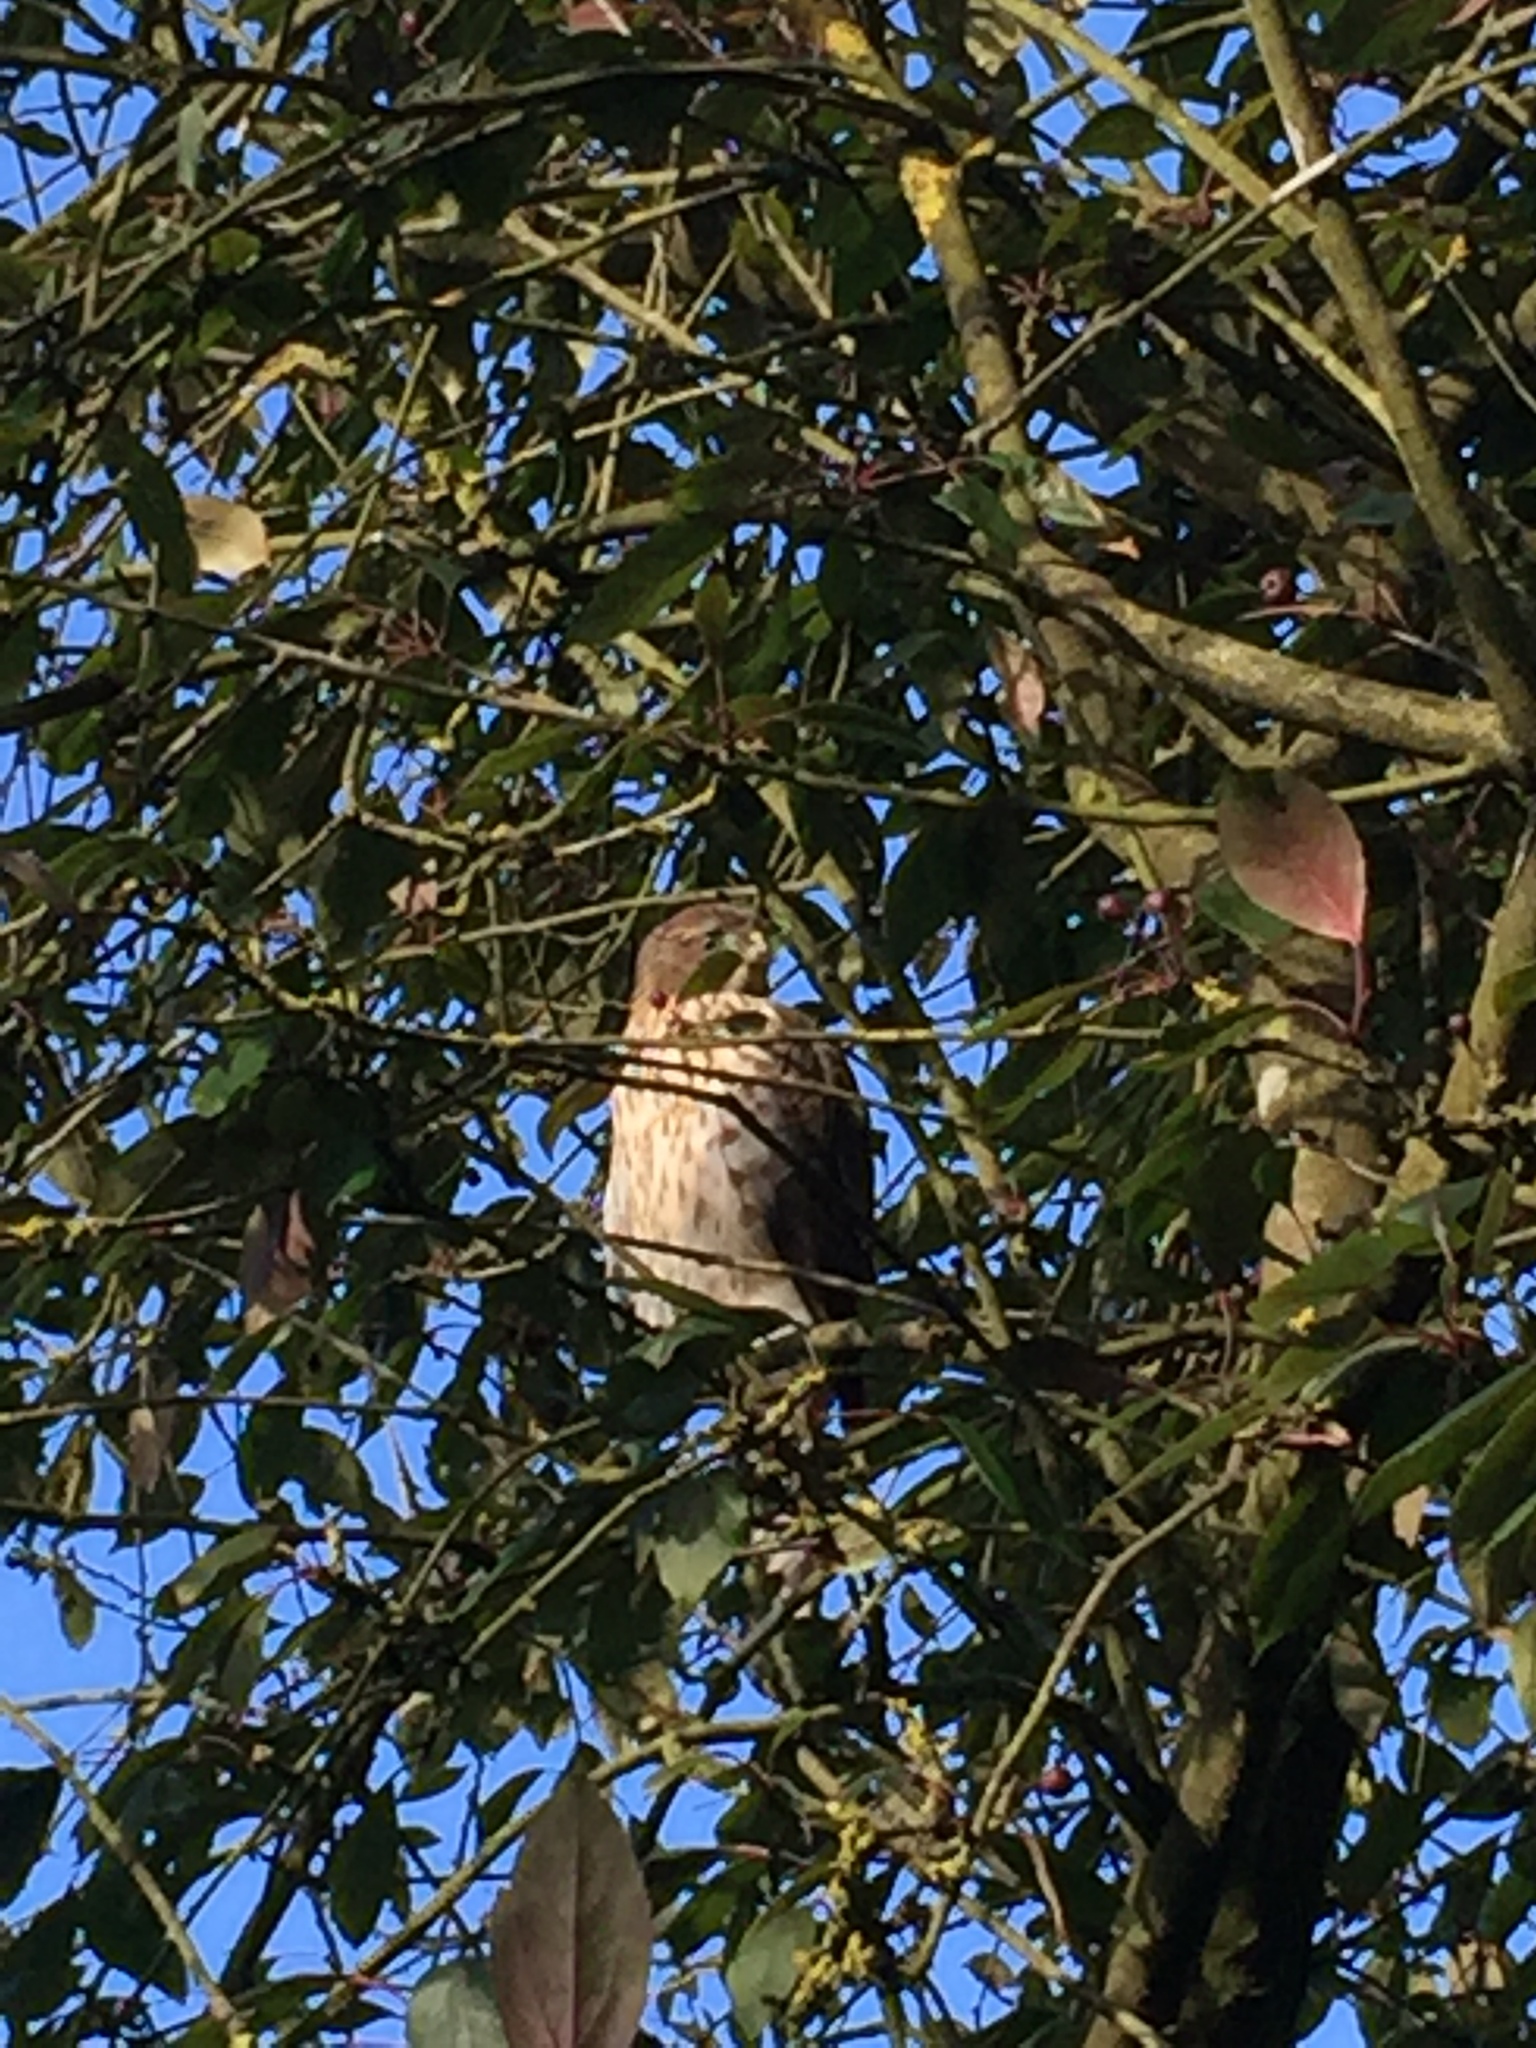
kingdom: Animalia
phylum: Chordata
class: Aves
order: Accipitriformes
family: Accipitridae
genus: Accipiter
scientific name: Accipiter cooperii
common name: Cooper's hawk
